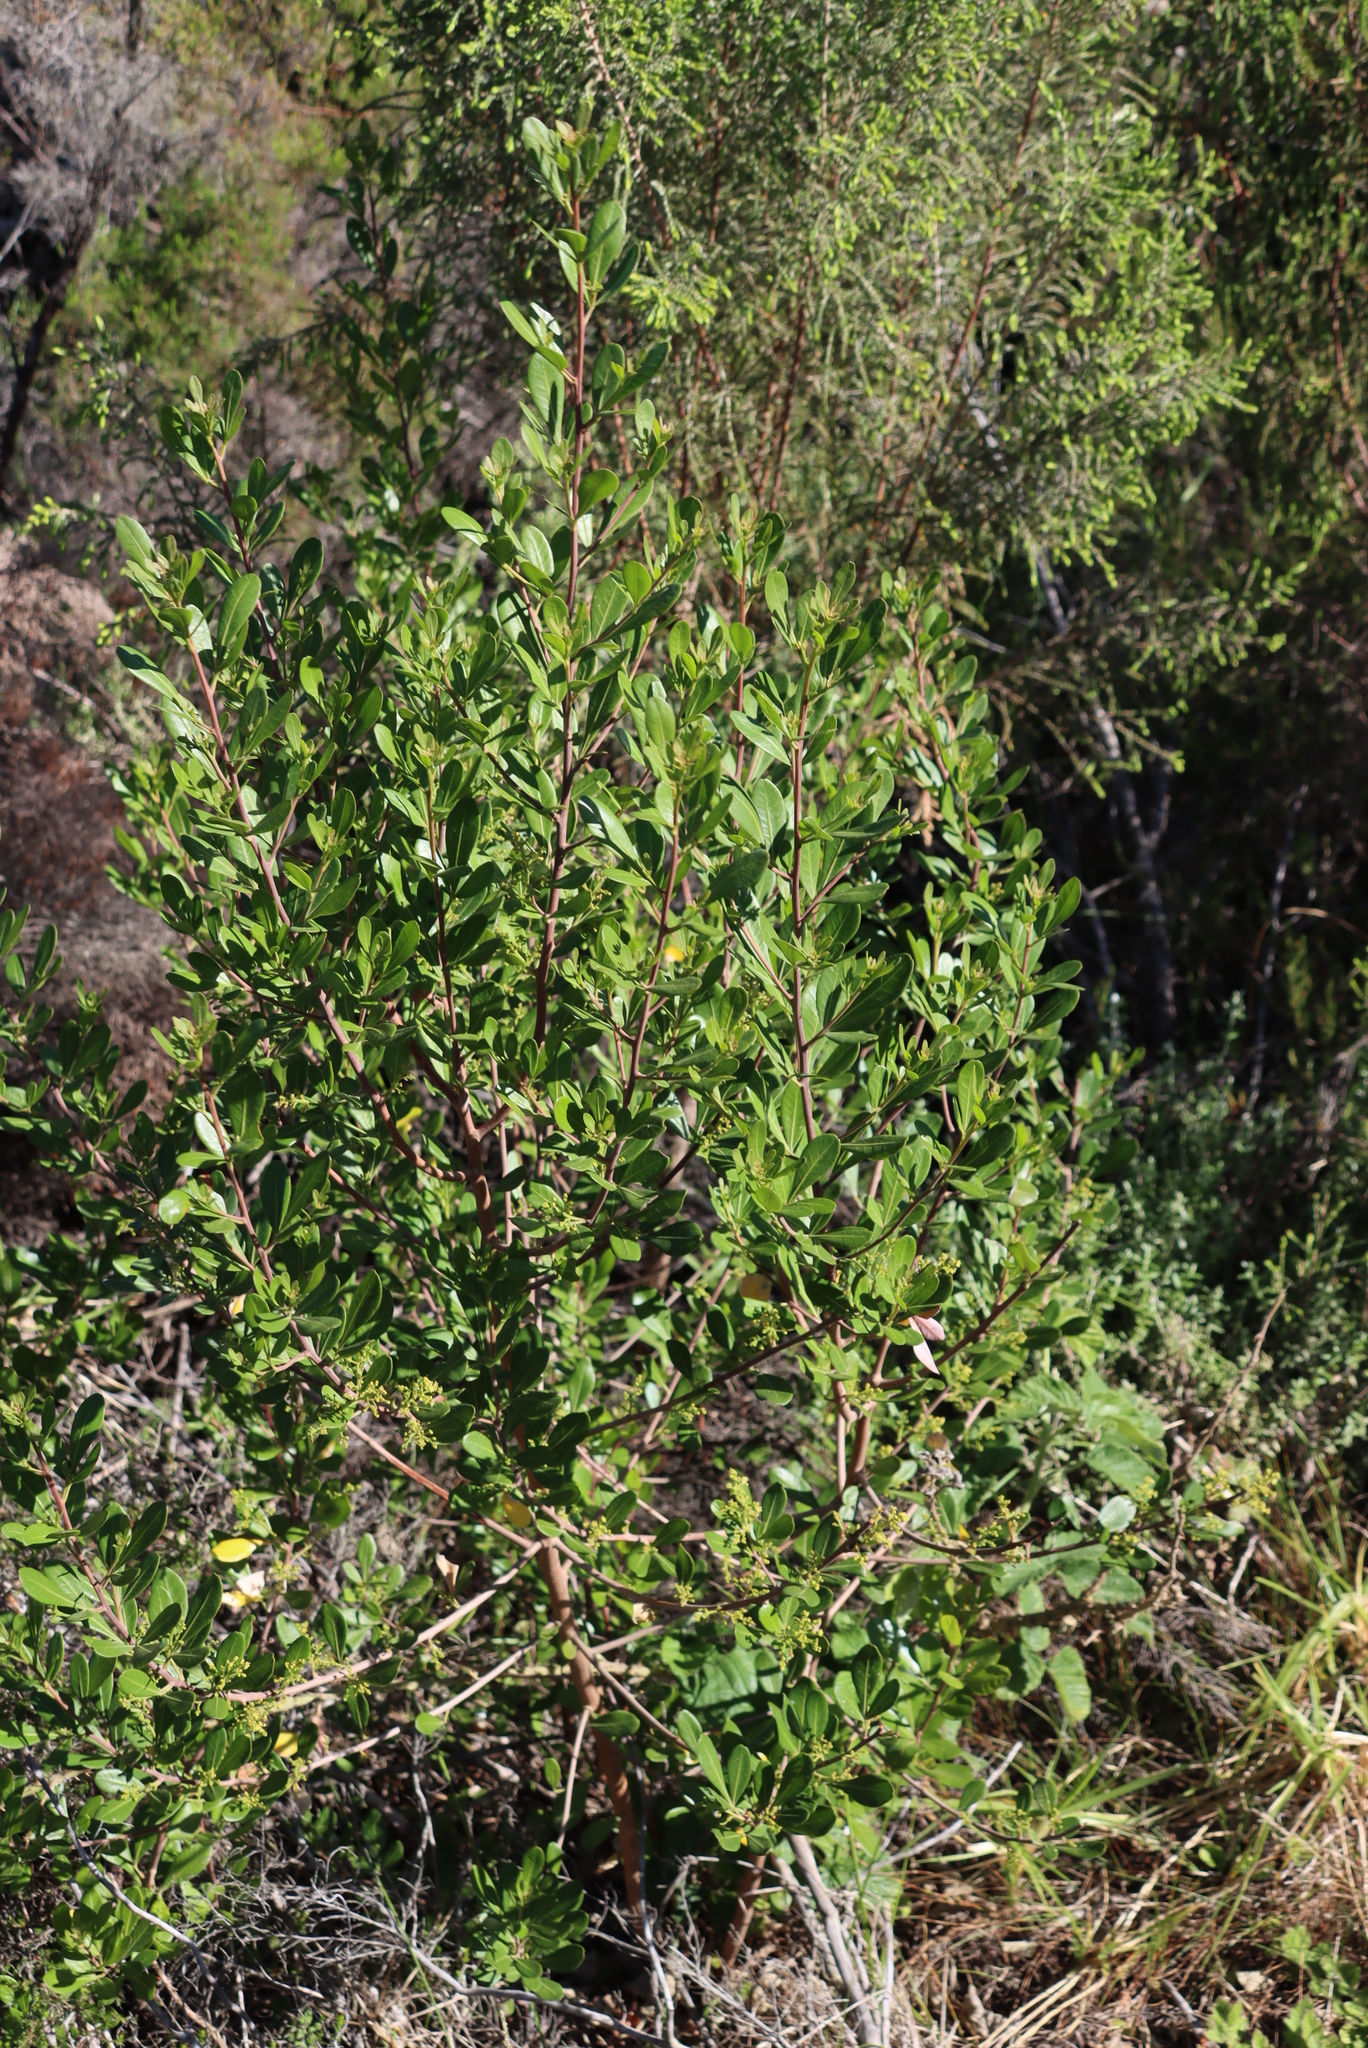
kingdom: Plantae
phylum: Tracheophyta
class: Magnoliopsida
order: Sapindales
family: Anacardiaceae
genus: Searsia
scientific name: Searsia lucida
